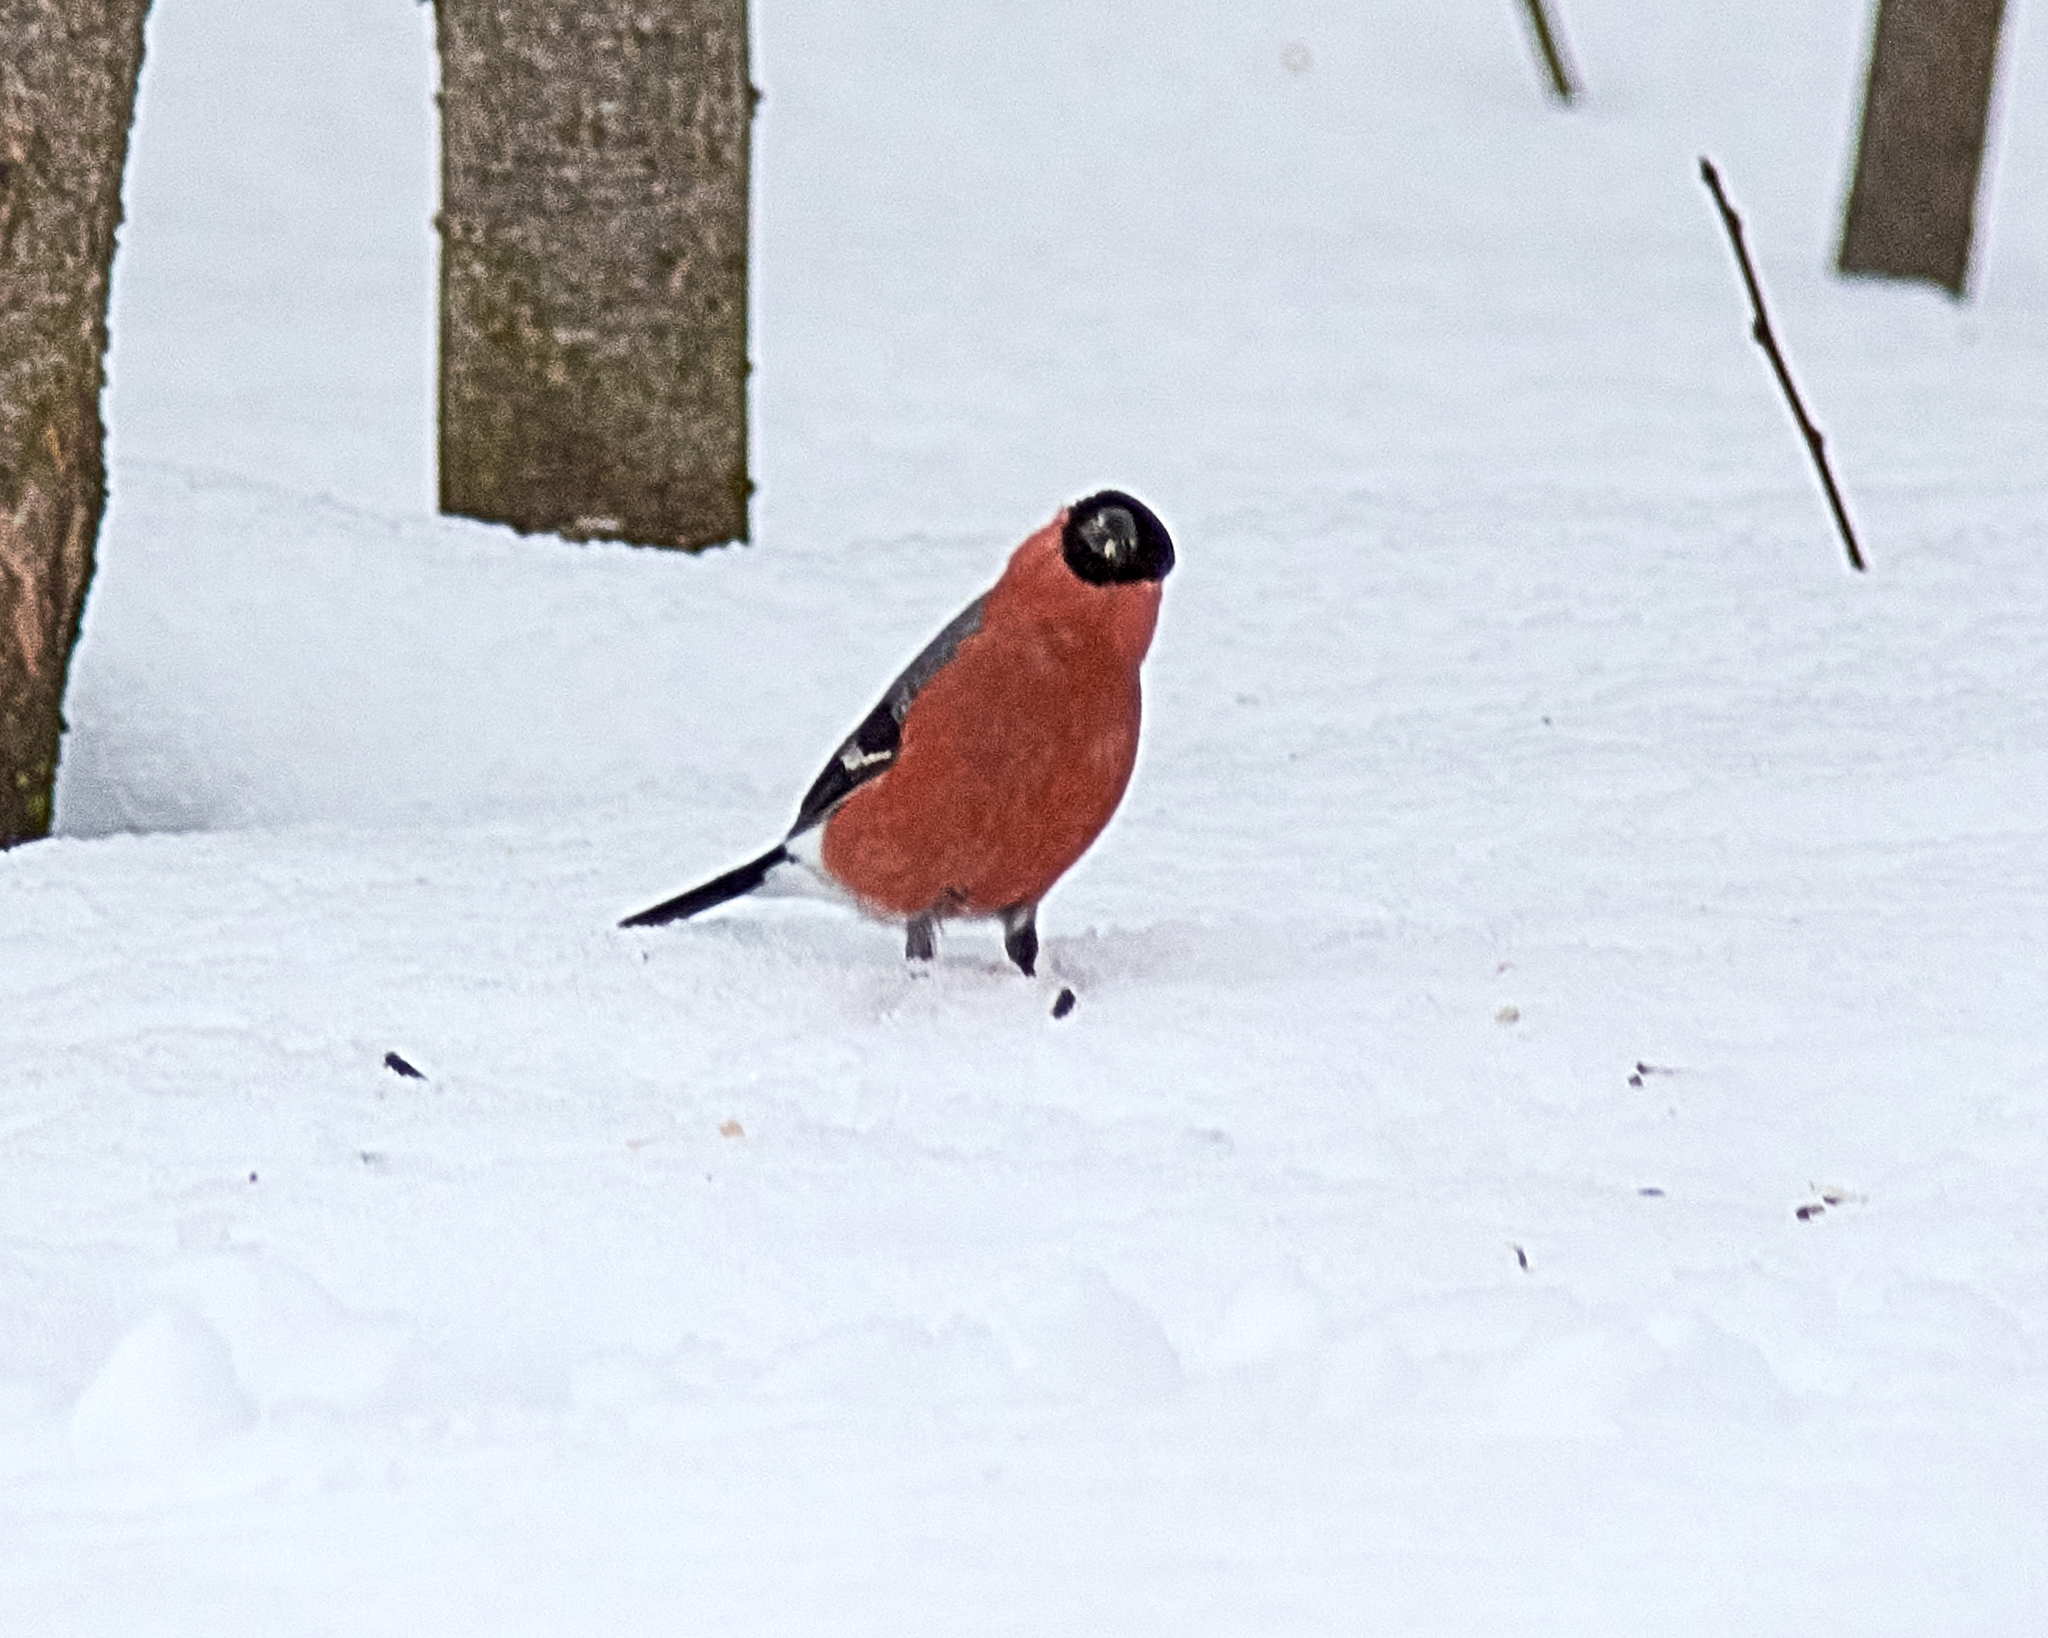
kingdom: Animalia
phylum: Chordata
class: Aves
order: Passeriformes
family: Fringillidae
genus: Pyrrhula
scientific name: Pyrrhula pyrrhula
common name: Eurasian bullfinch
